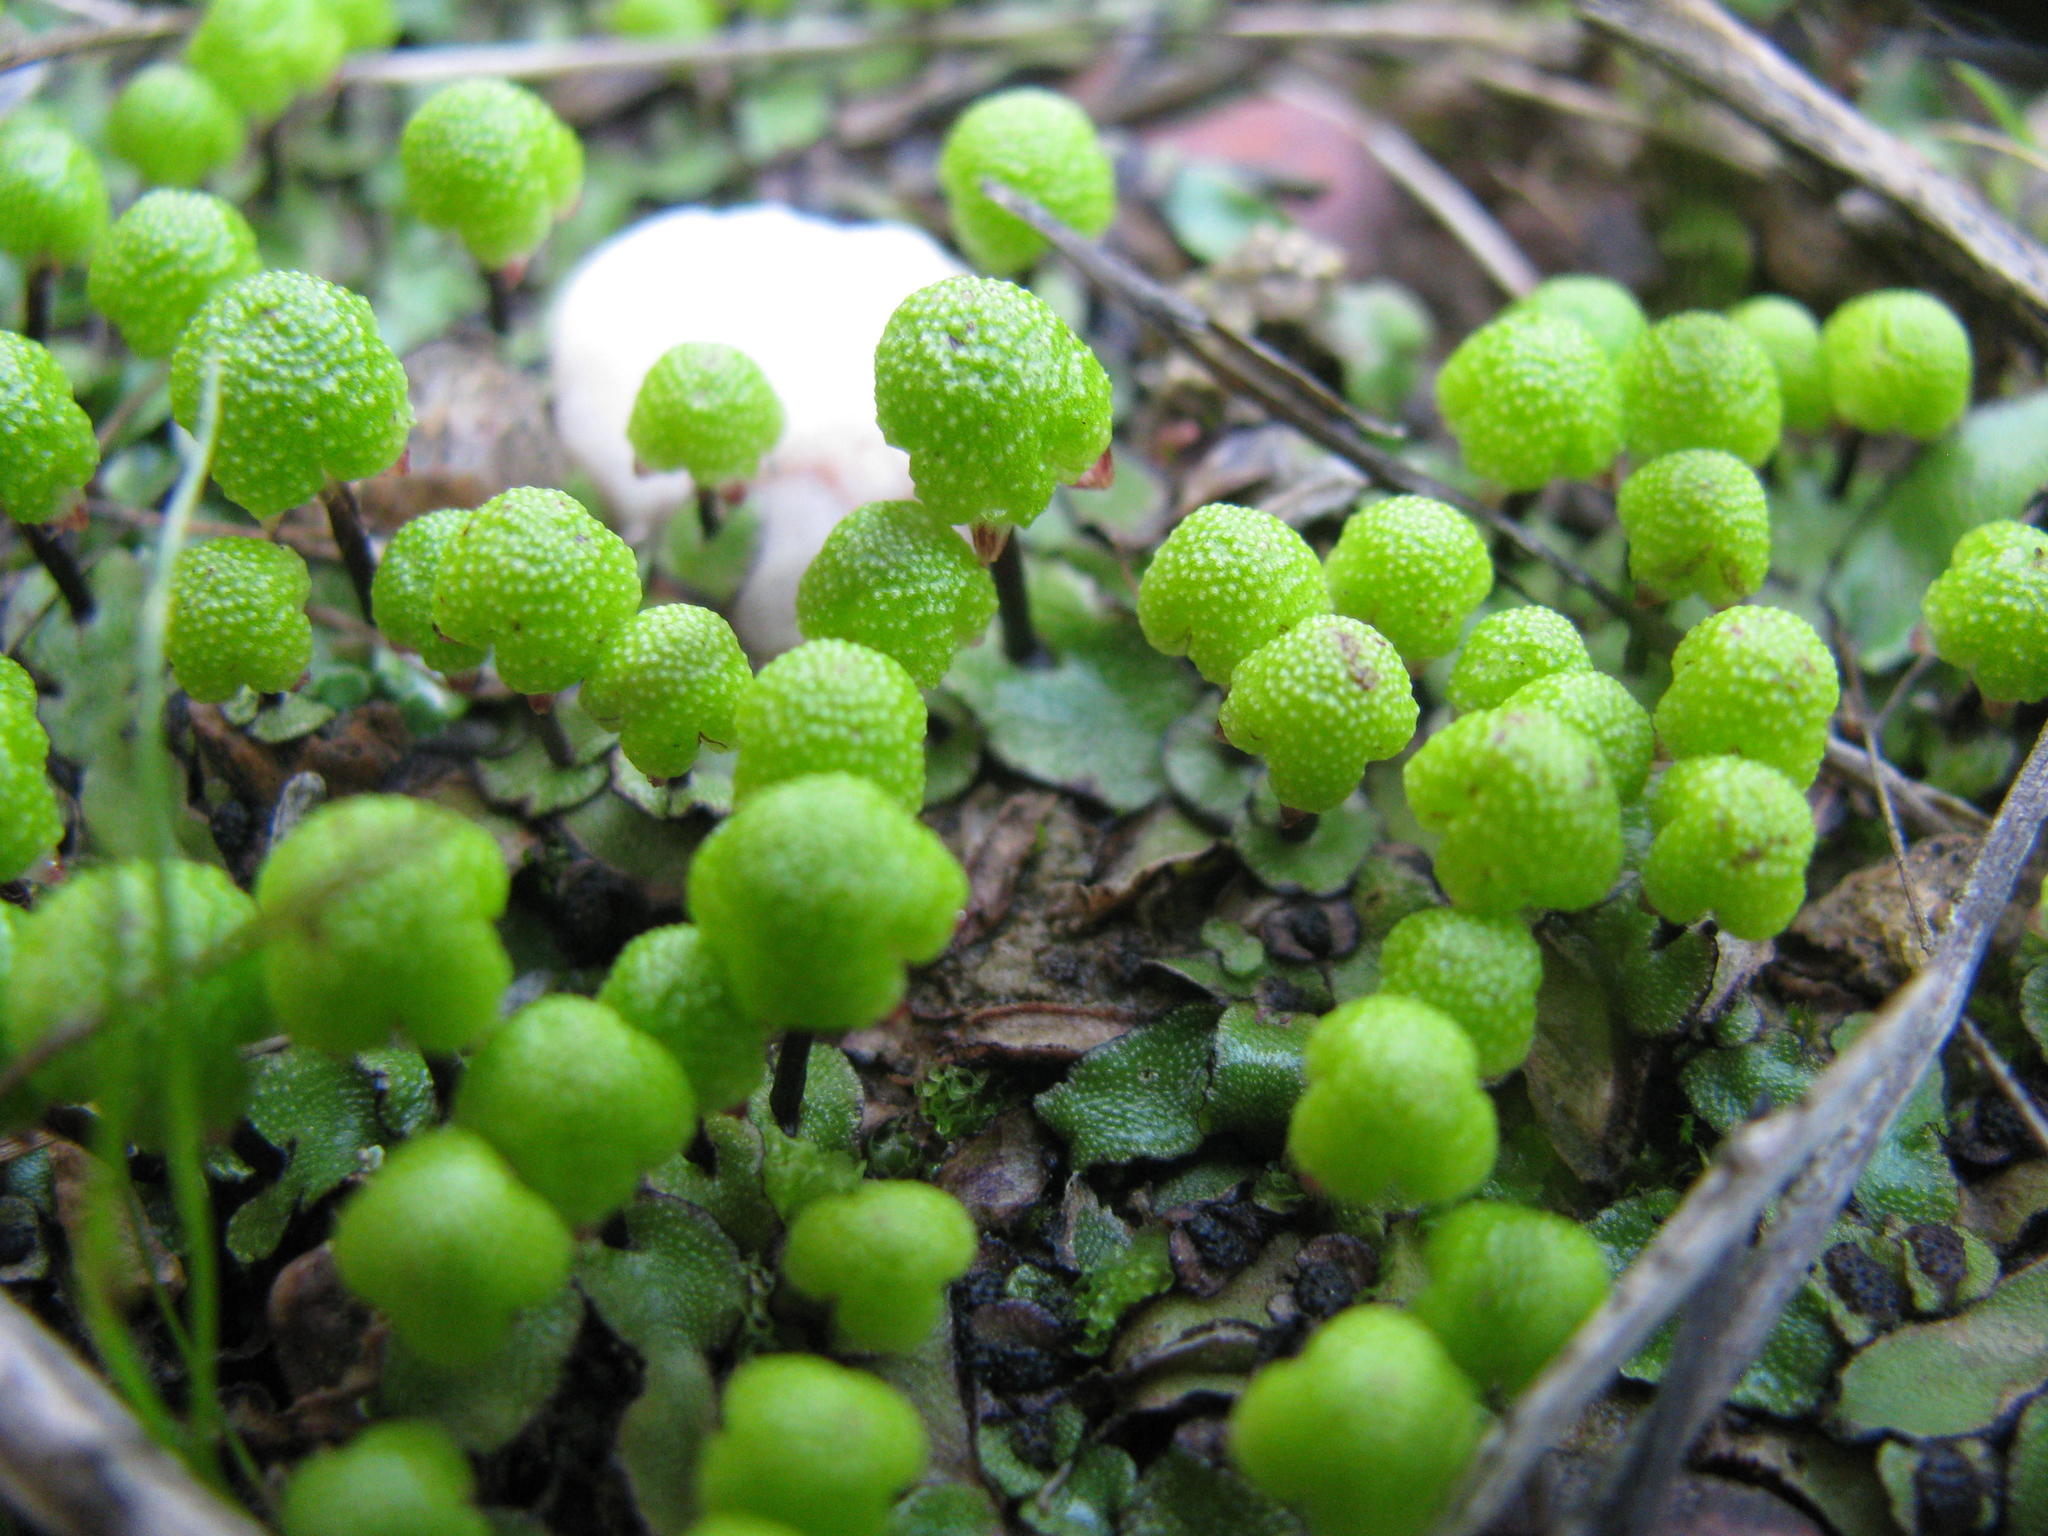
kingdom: Plantae
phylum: Marchantiophyta
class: Marchantiopsida
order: Marchantiales
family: Aytoniaceae
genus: Asterella
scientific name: Asterella marginata
